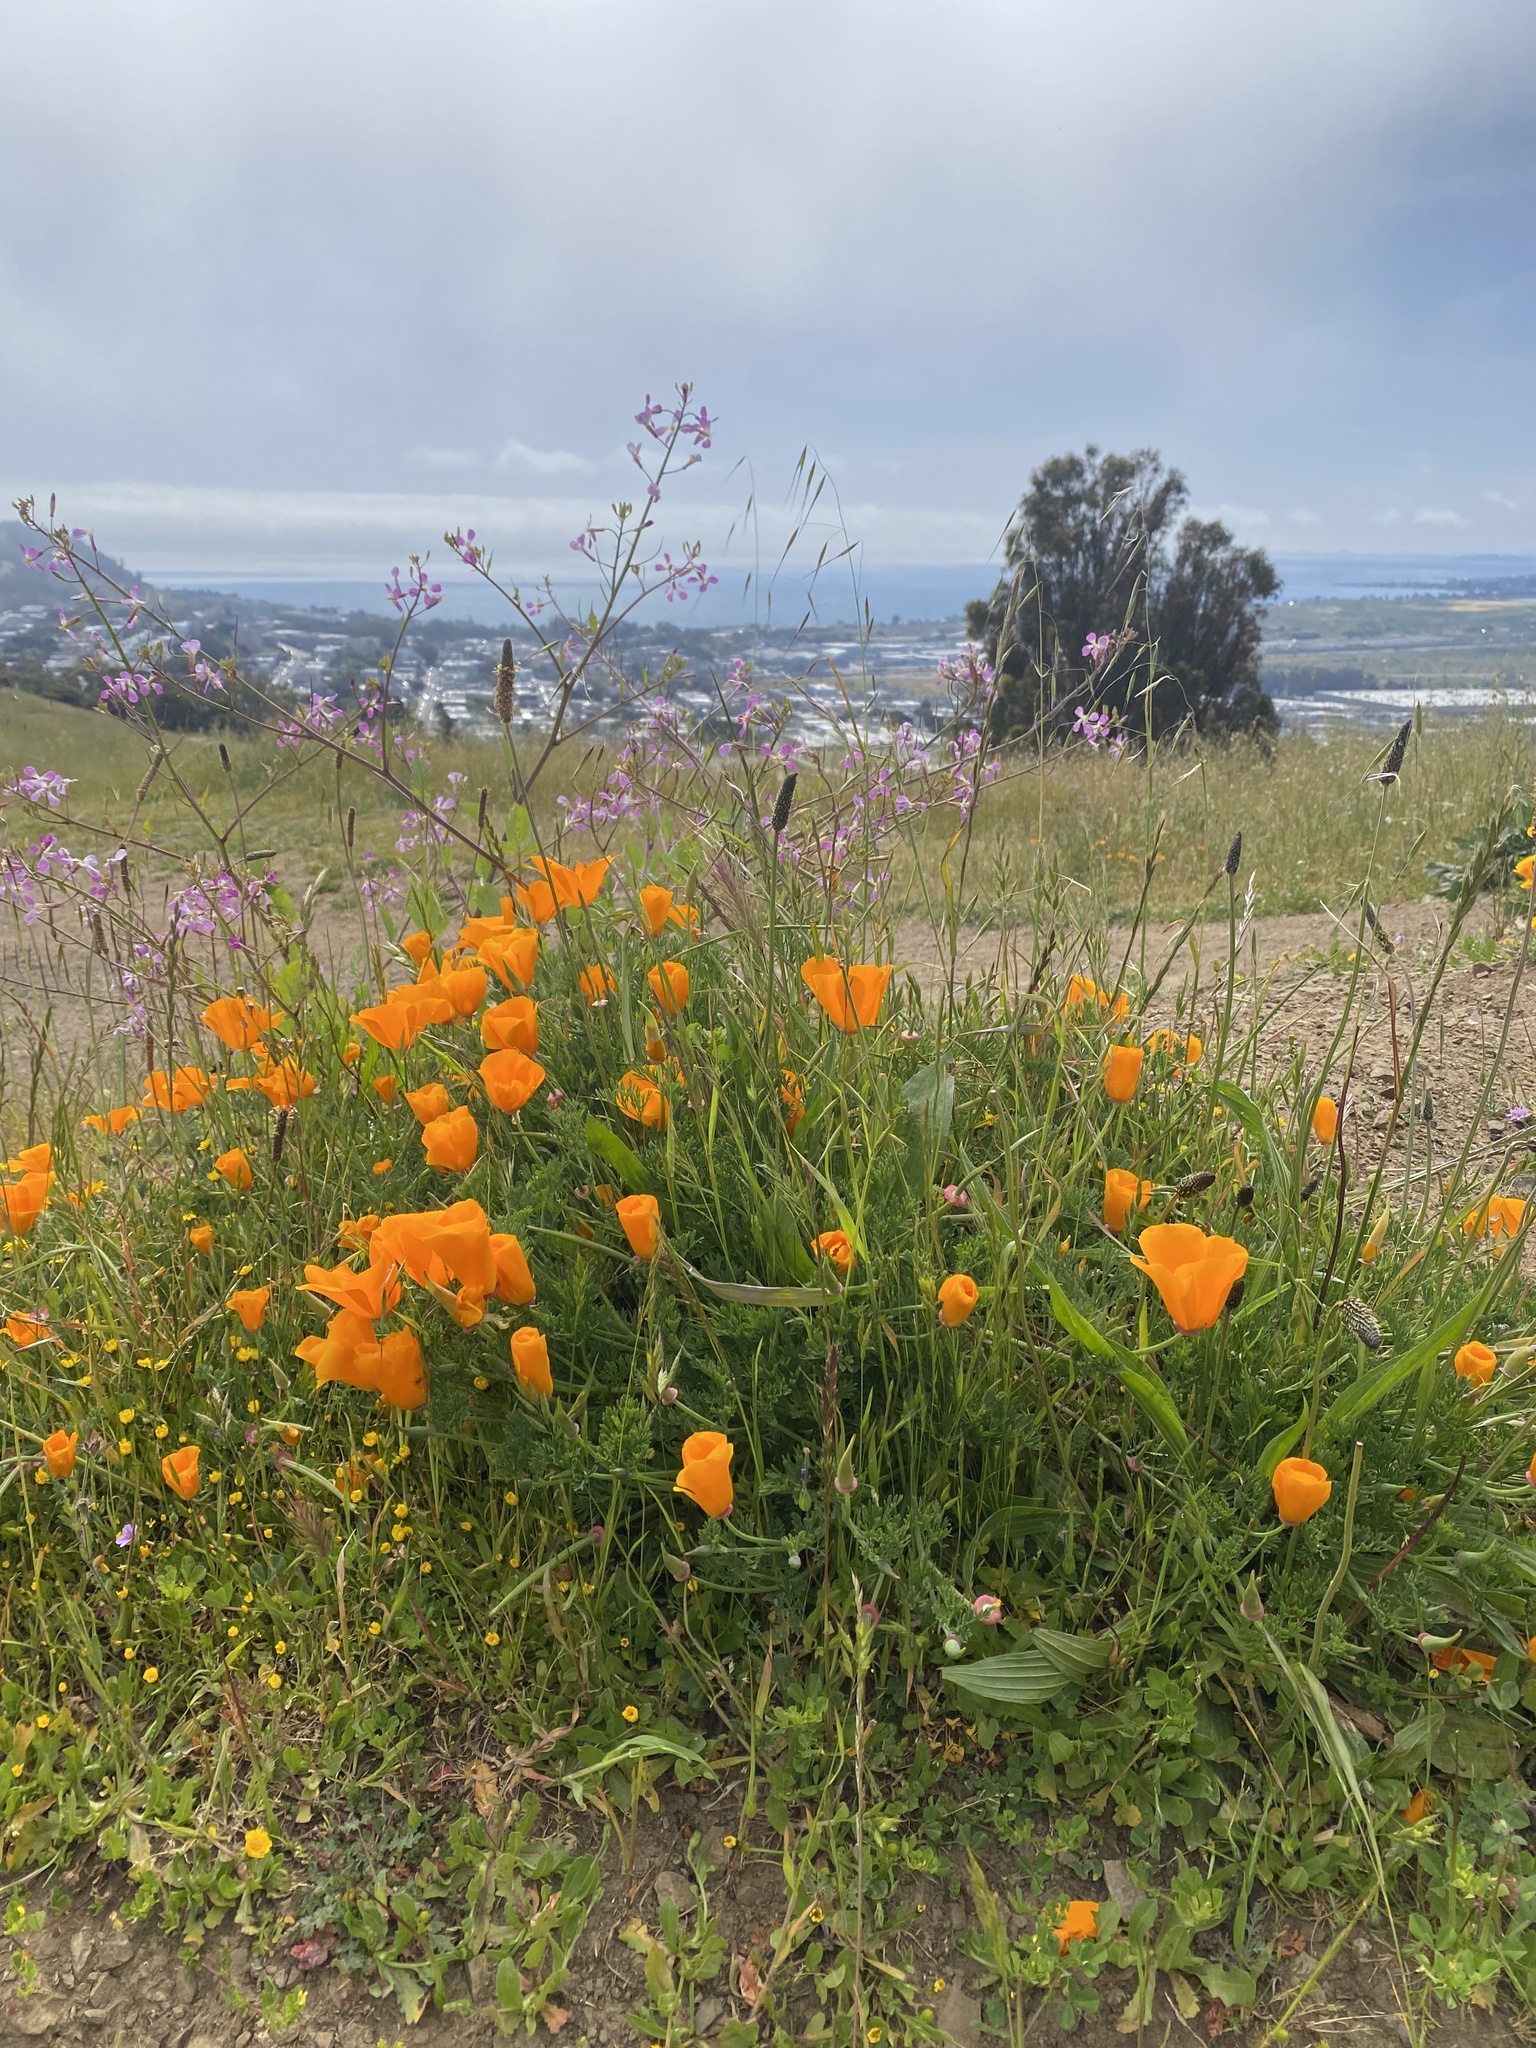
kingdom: Plantae
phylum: Tracheophyta
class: Magnoliopsida
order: Ranunculales
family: Papaveraceae
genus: Eschscholzia
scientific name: Eschscholzia californica
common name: California poppy
